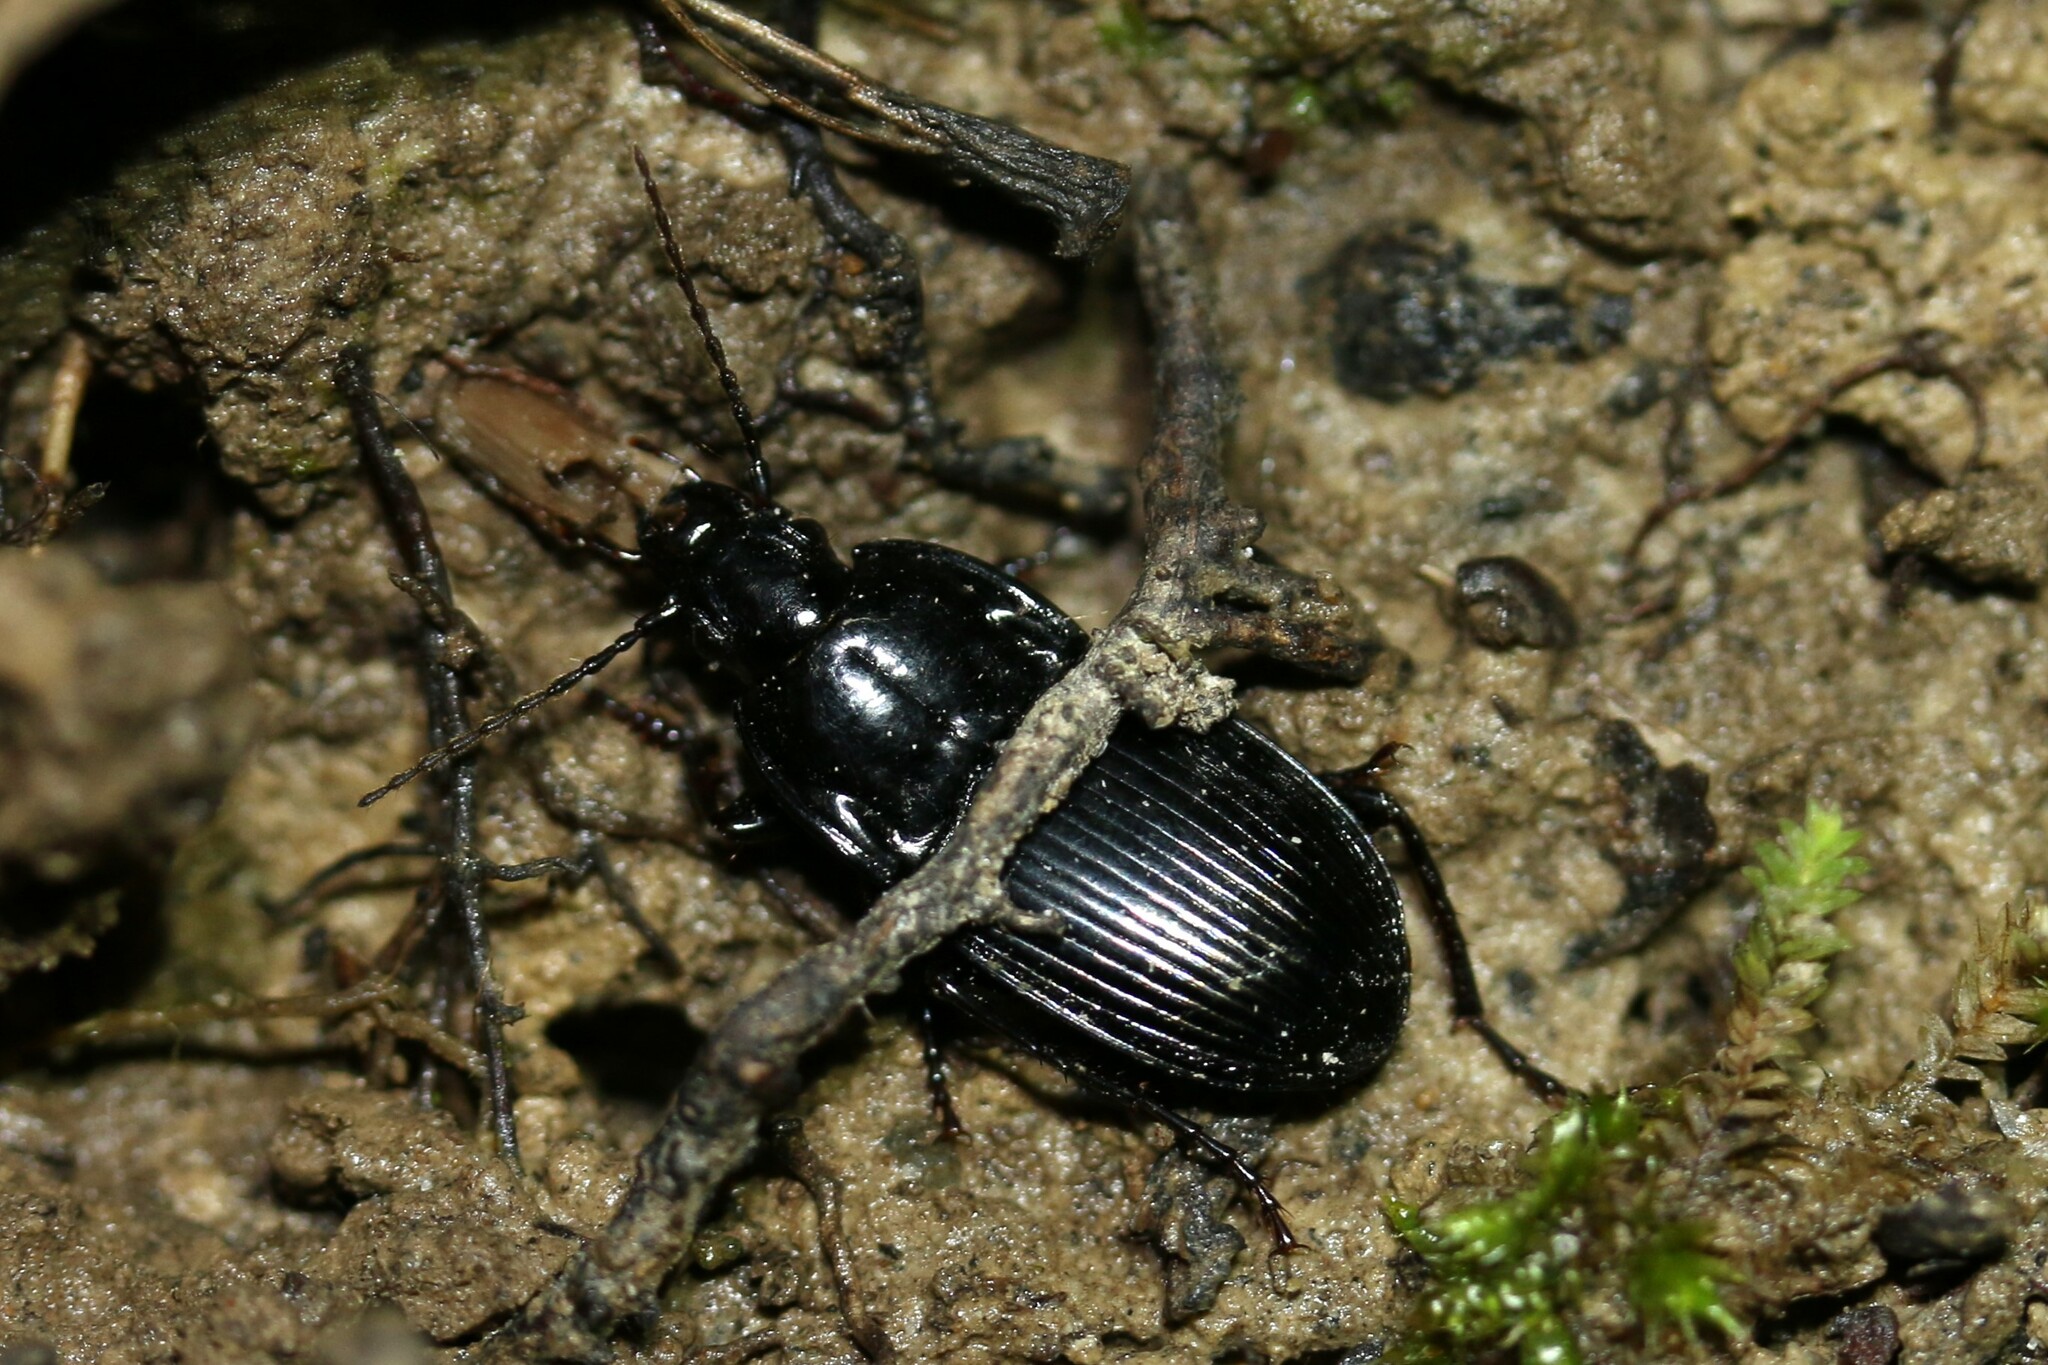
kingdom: Animalia
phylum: Arthropoda
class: Insecta
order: Coleoptera
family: Carabidae
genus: Abax
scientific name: Abax ovalis
